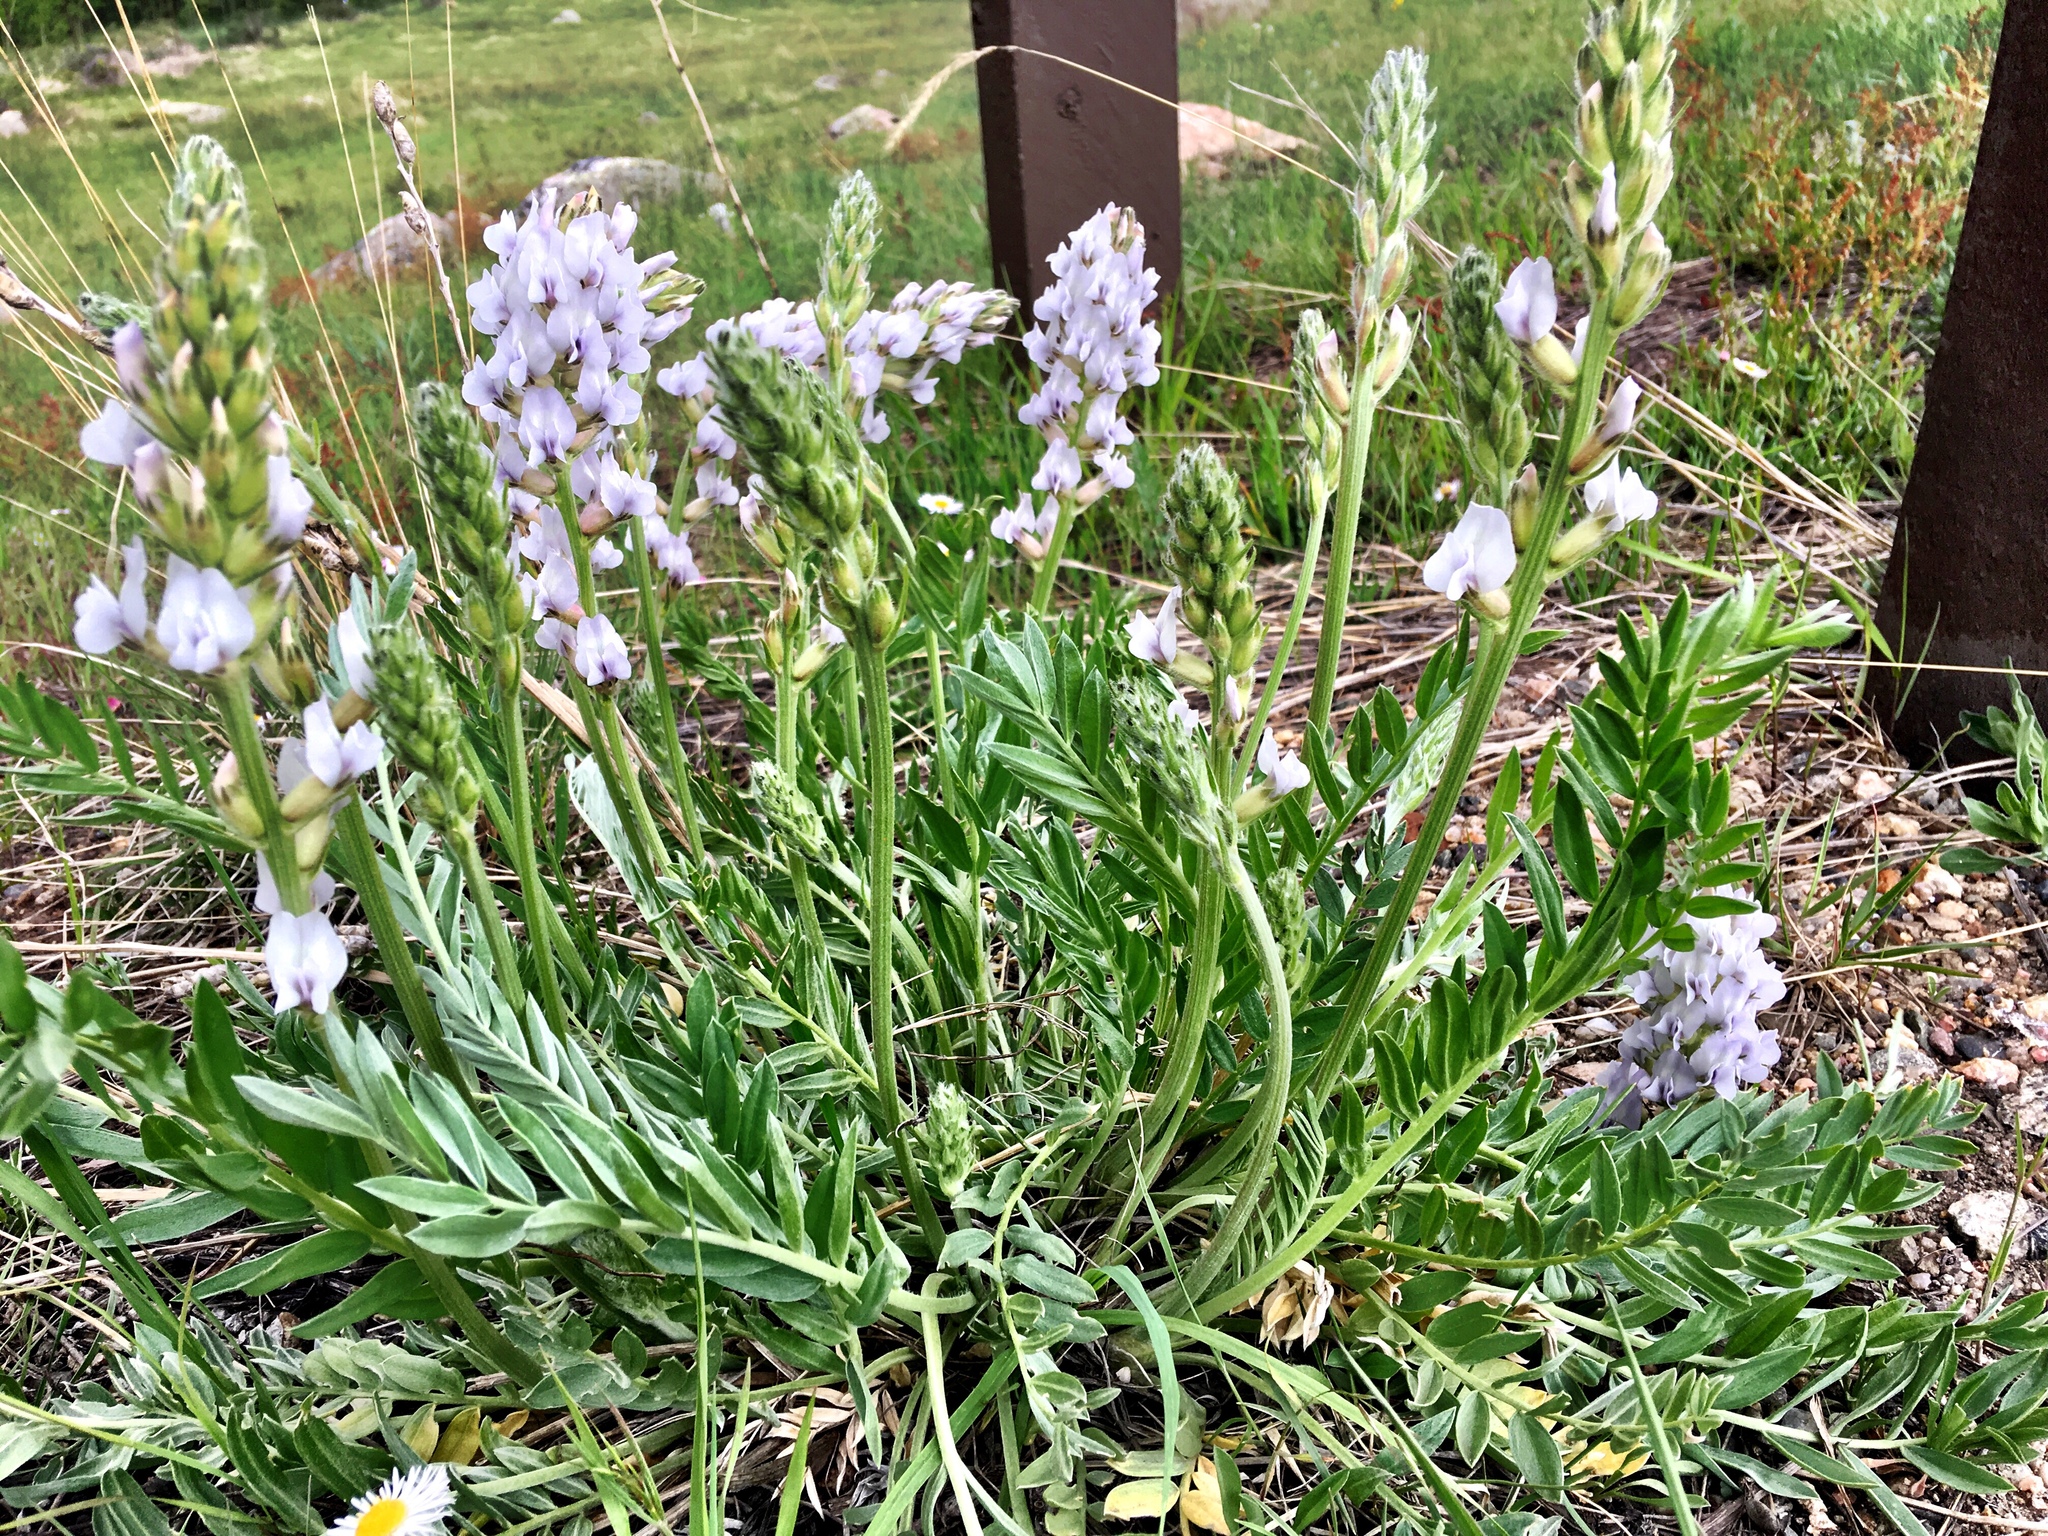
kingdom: Plantae
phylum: Tracheophyta
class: Magnoliopsida
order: Fabales
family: Fabaceae
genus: Oxytropis
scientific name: Oxytropis sericea
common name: Silky locoweed
